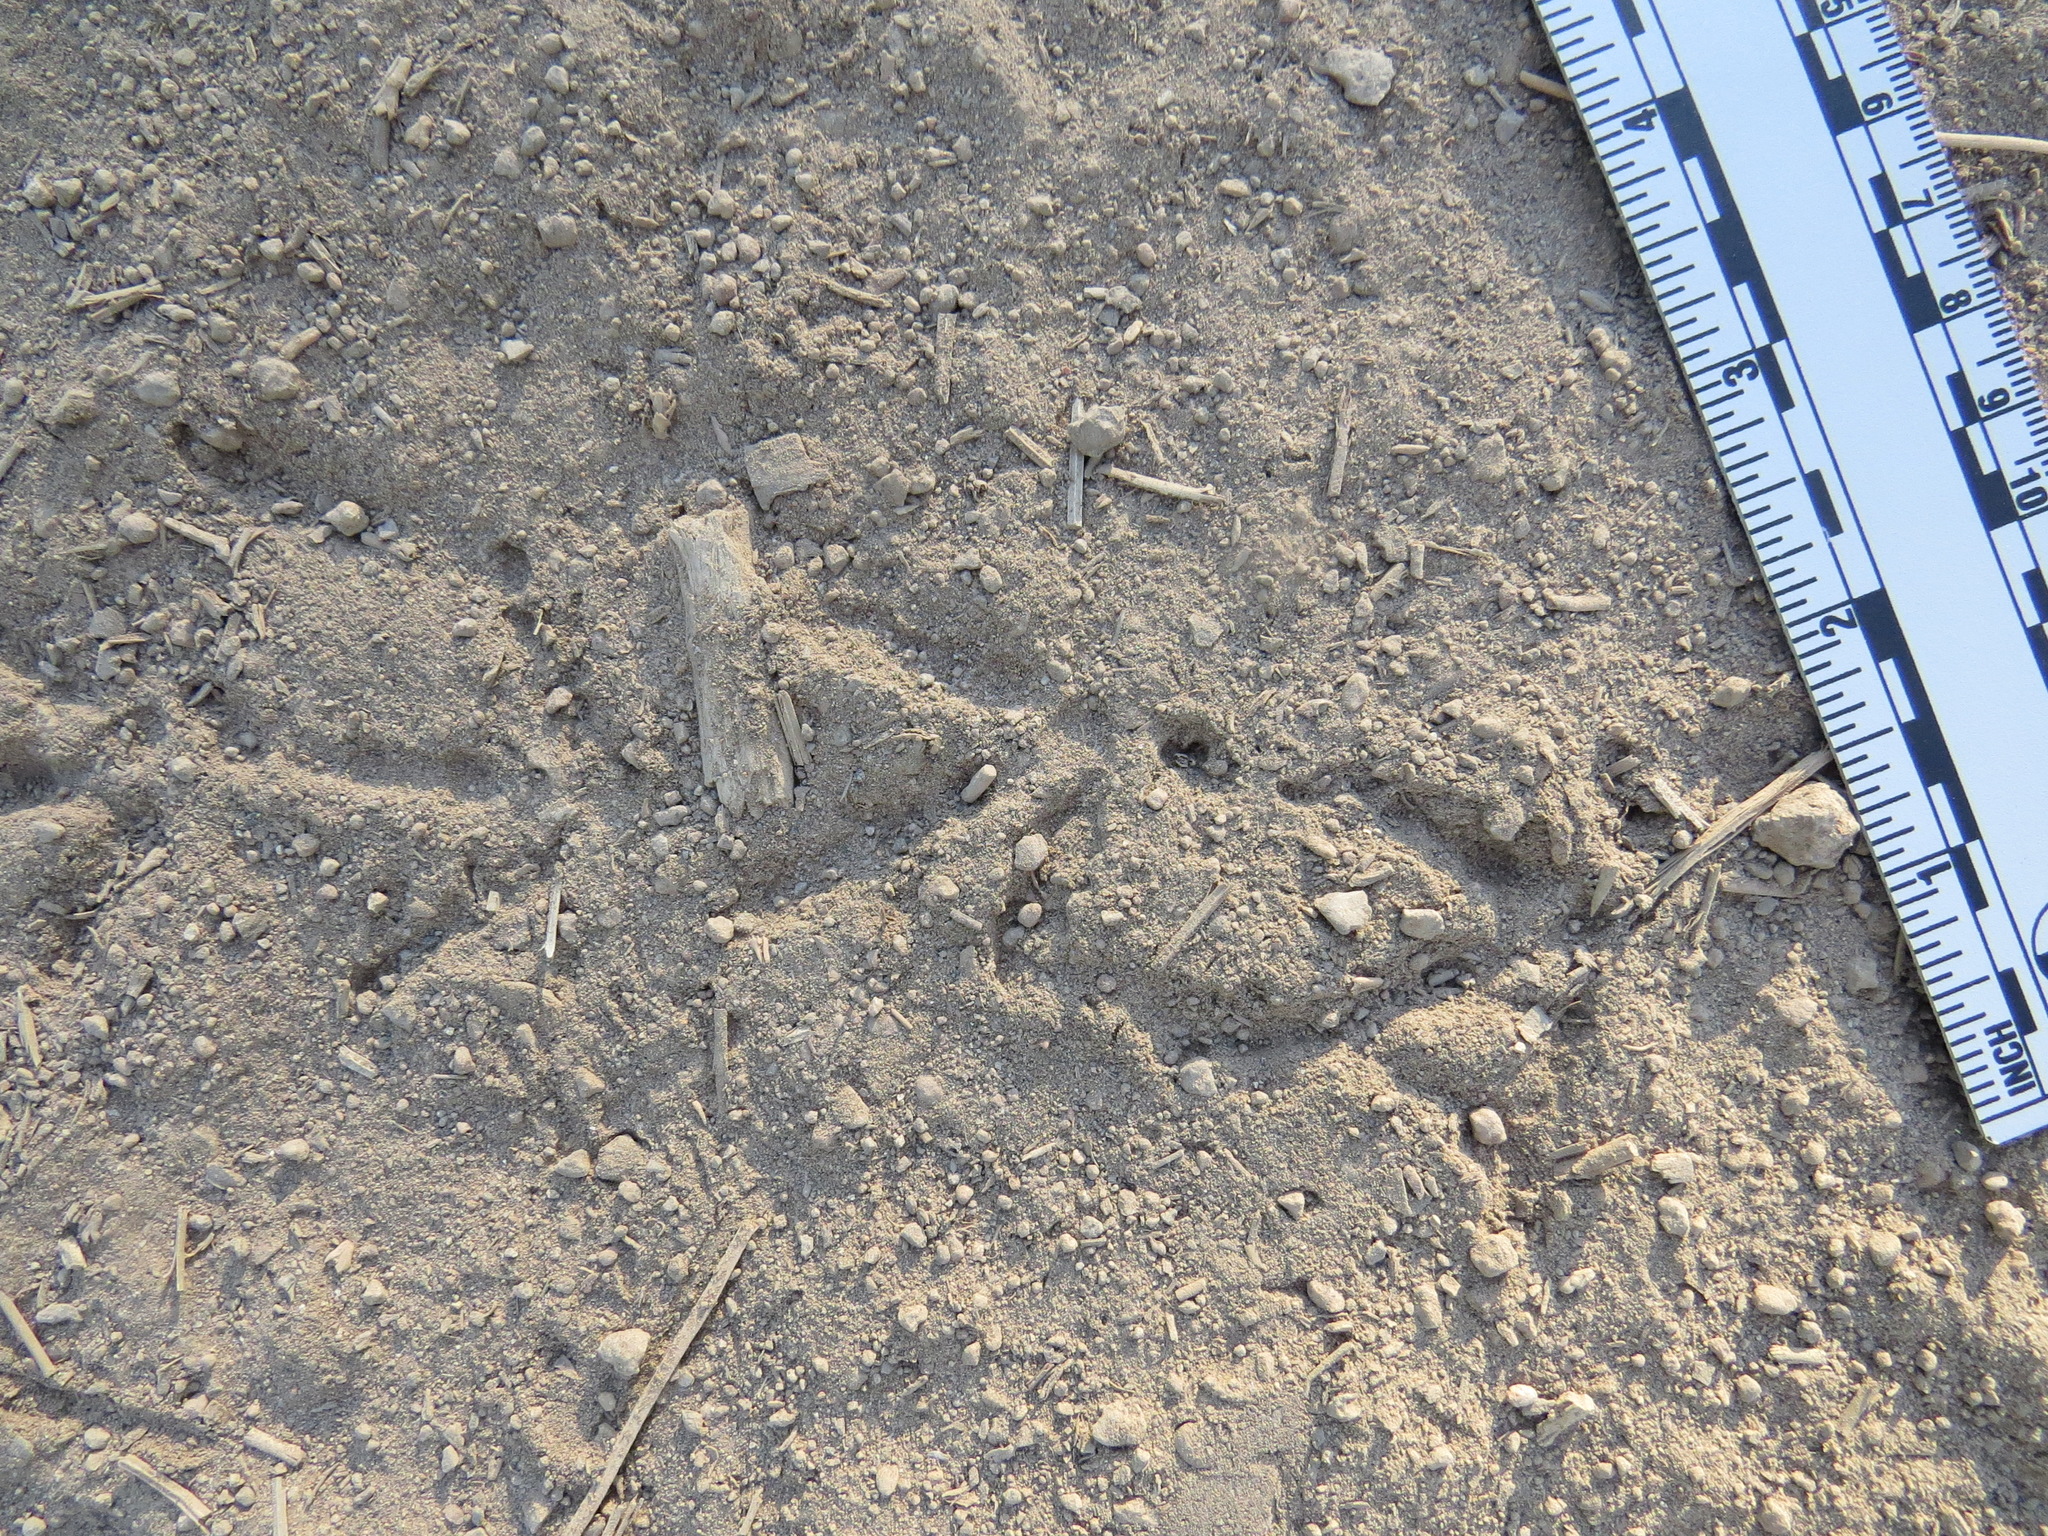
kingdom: Animalia
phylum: Chordata
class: Aves
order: Galliformes
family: Odontophoridae
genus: Oreortyx
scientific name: Oreortyx pictus
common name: Mountain quail
